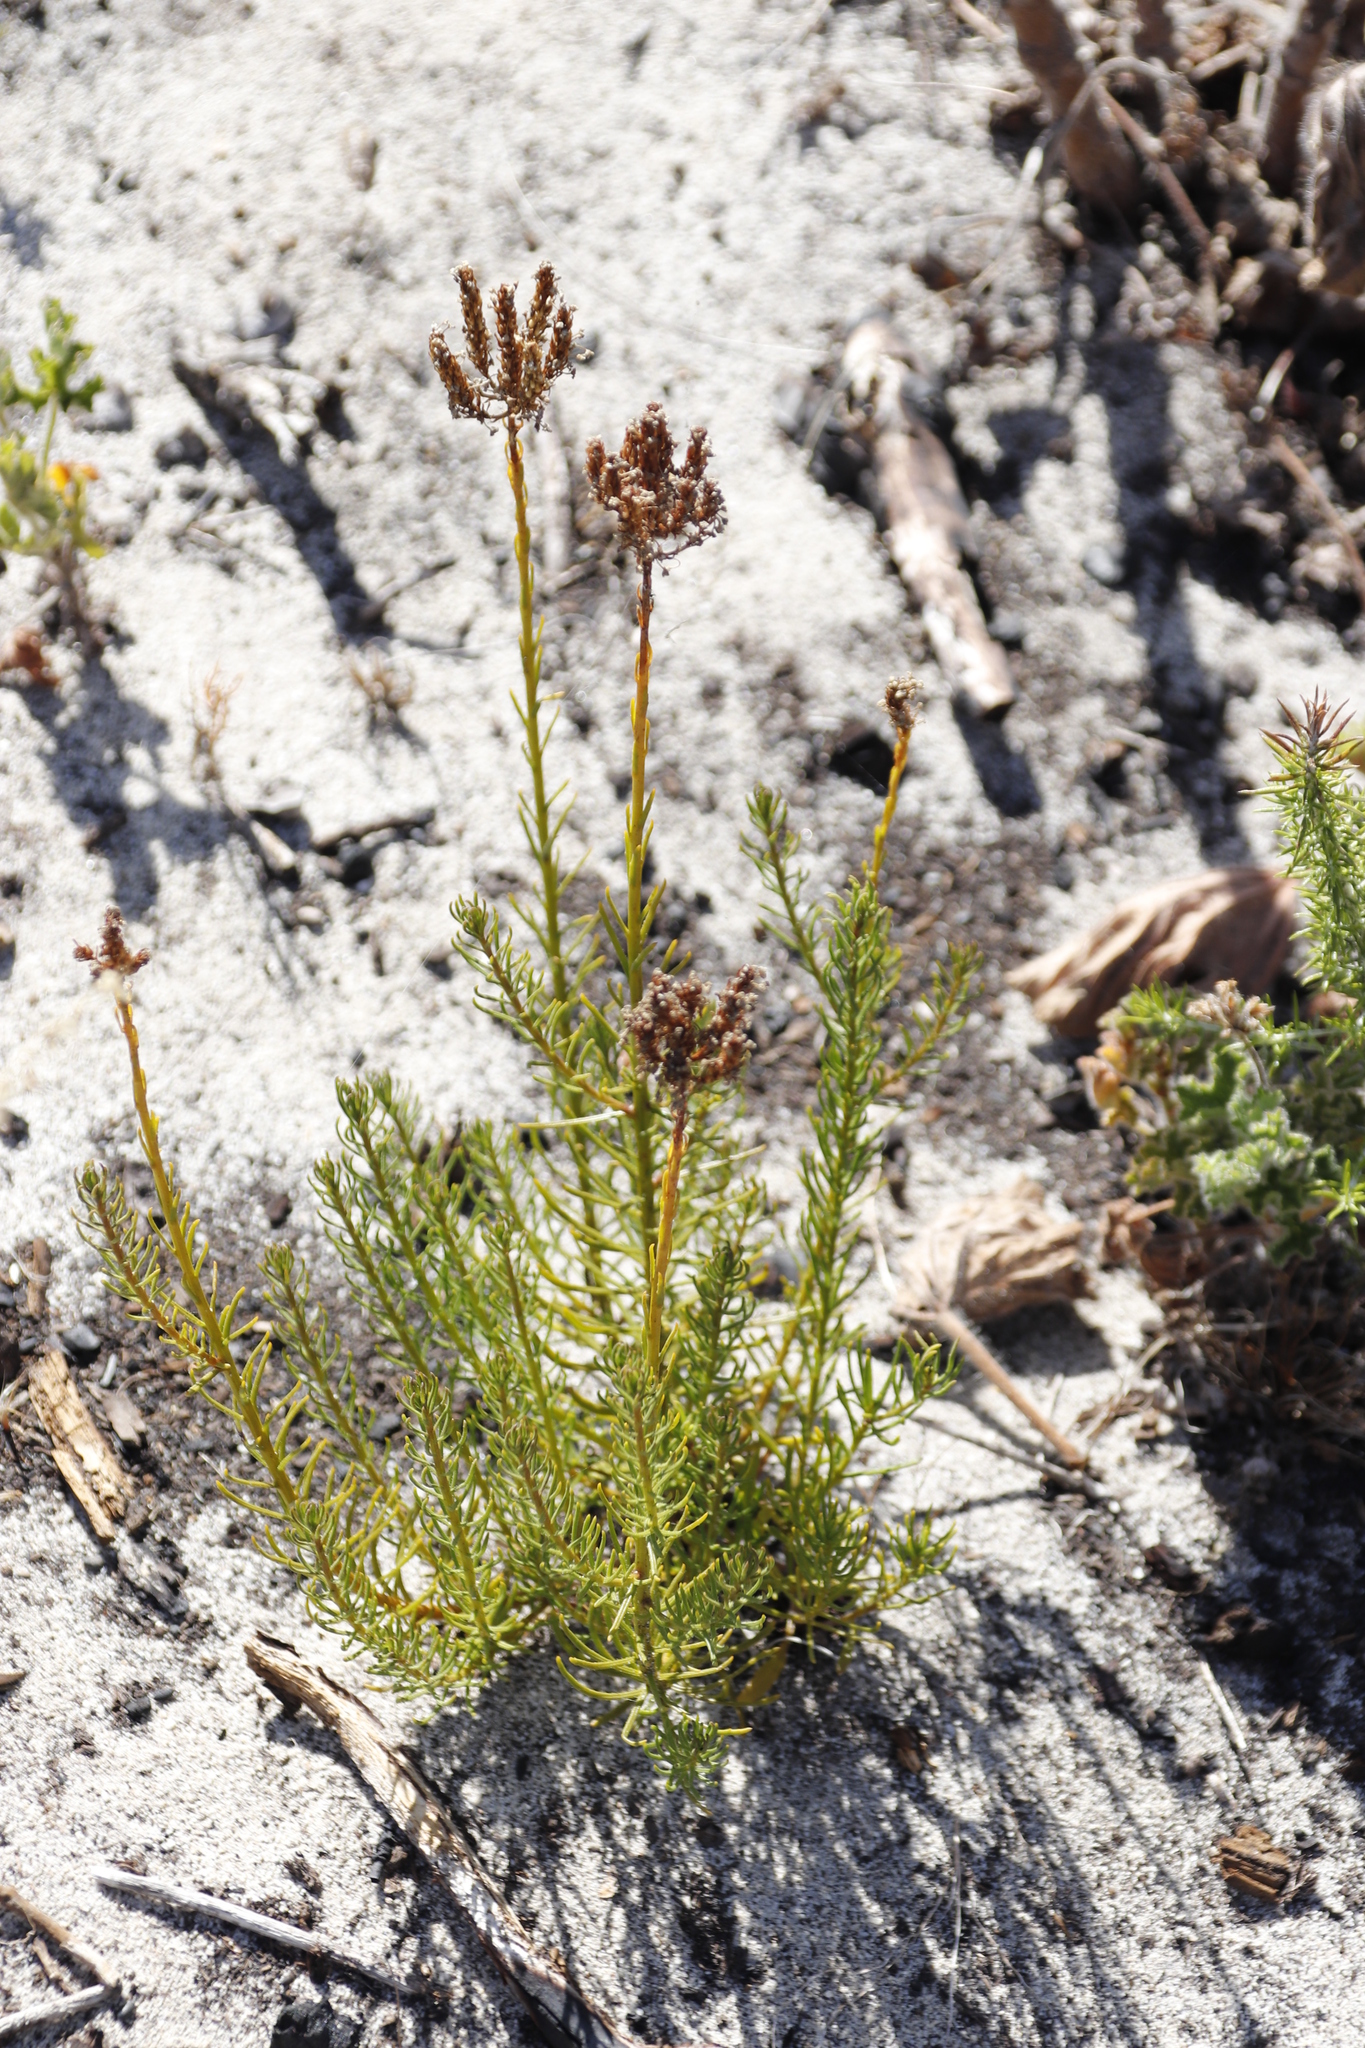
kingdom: Plantae
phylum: Tracheophyta
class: Magnoliopsida
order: Lamiales
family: Scrophulariaceae
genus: Pseudoselago
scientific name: Pseudoselago spuria
